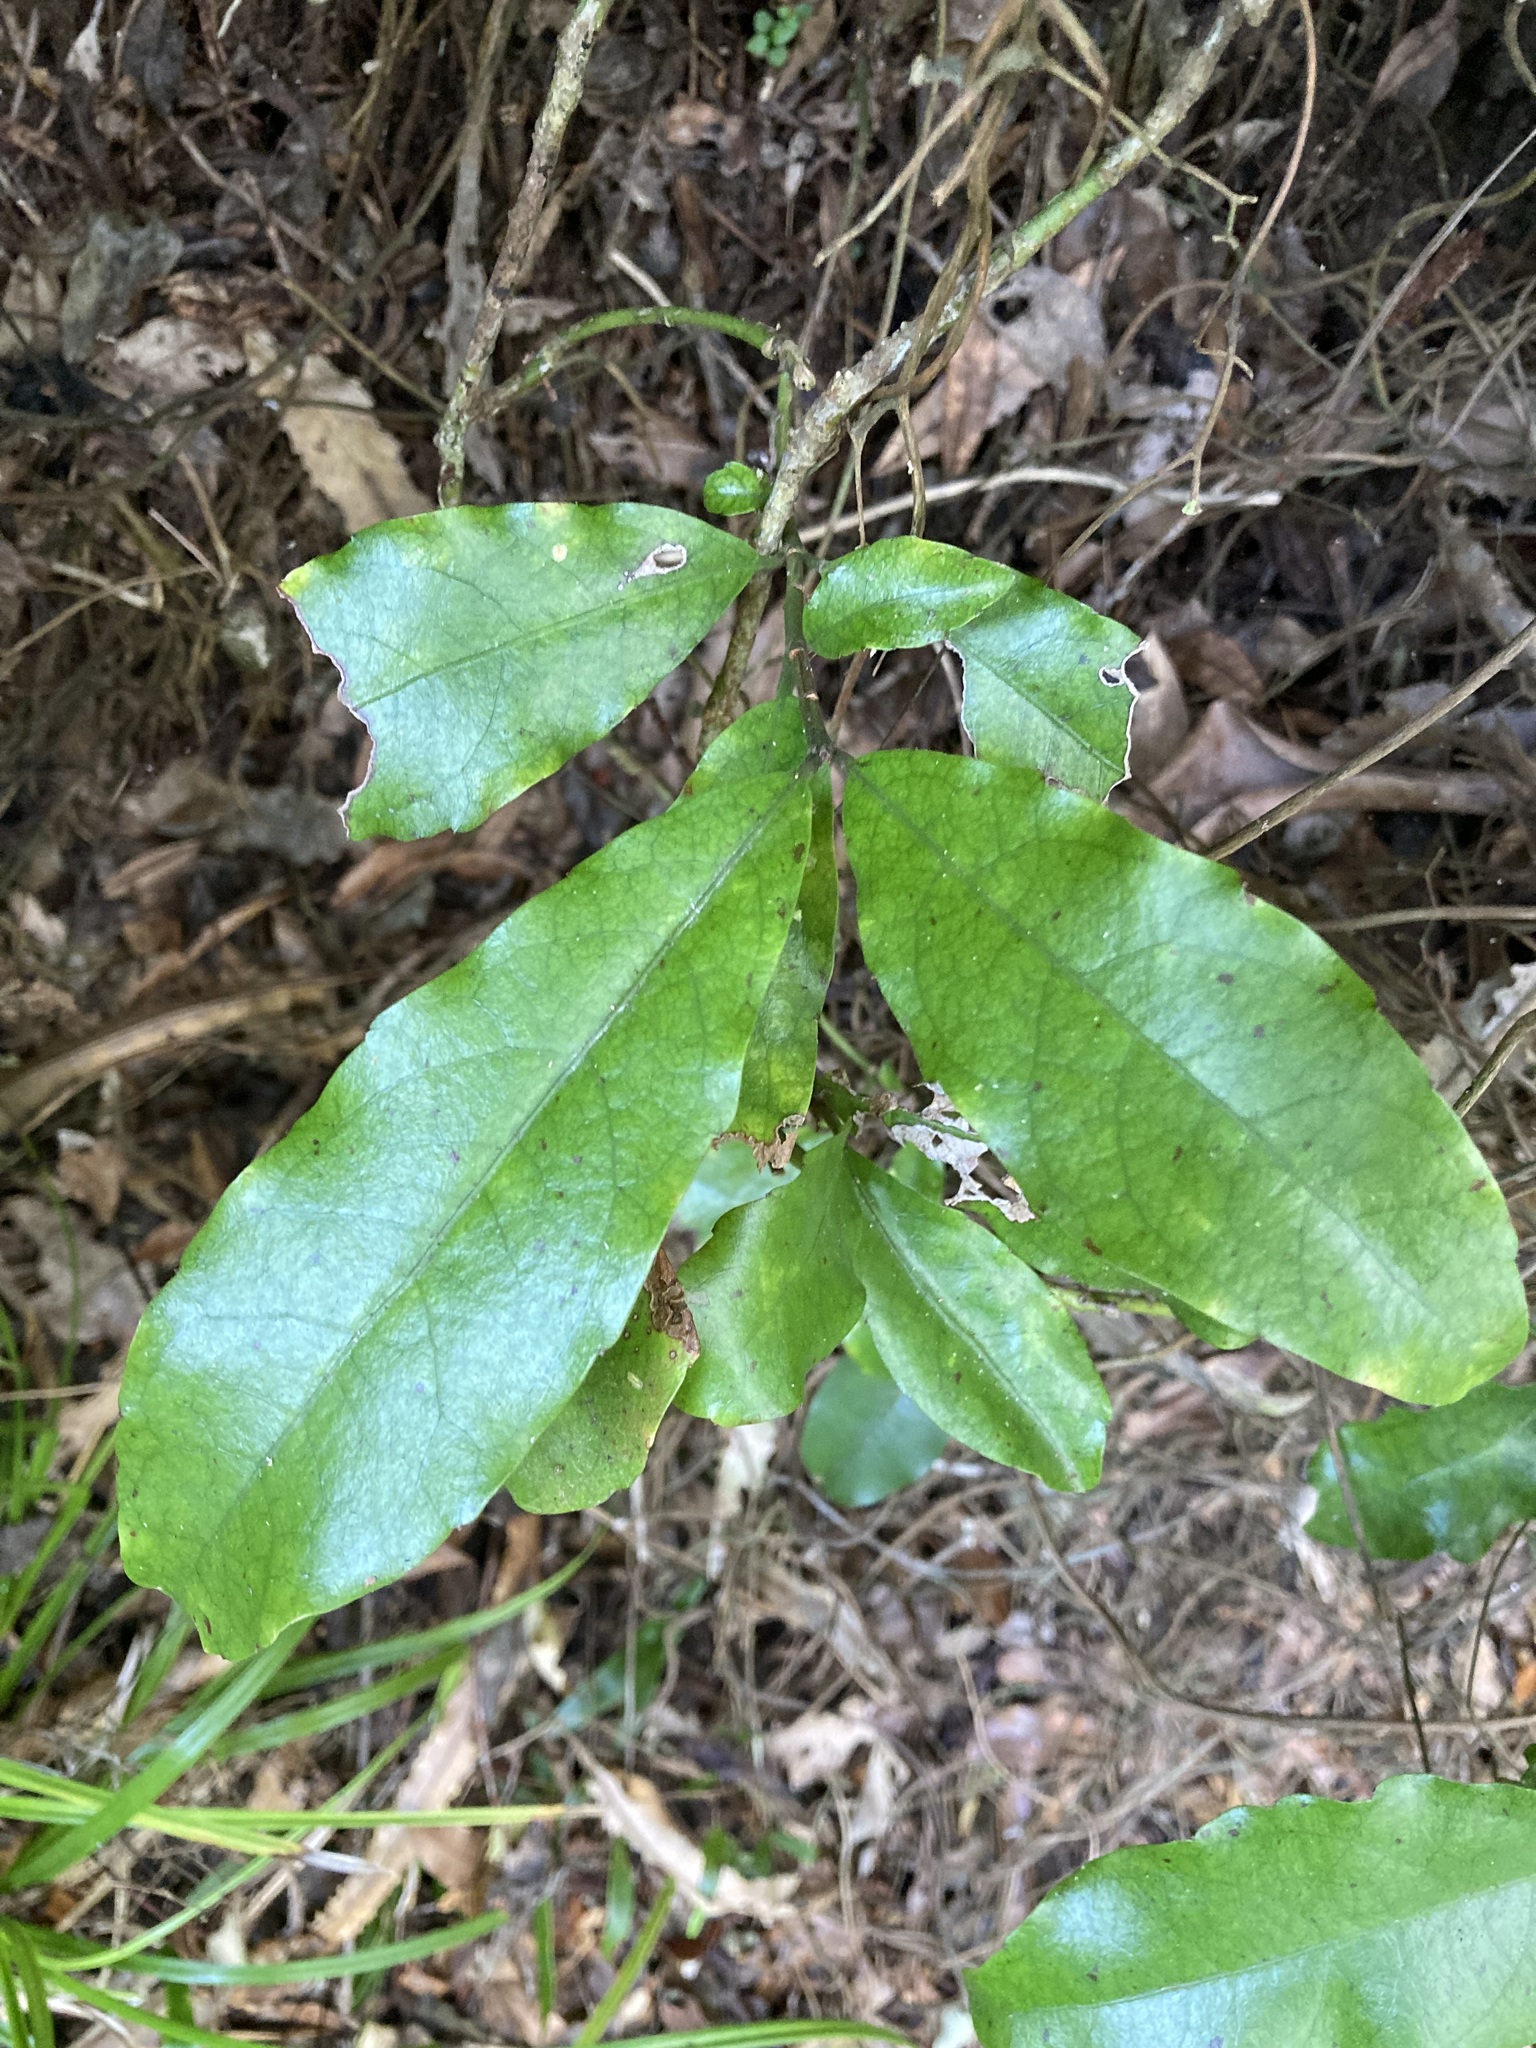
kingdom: Plantae
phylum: Tracheophyta
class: Magnoliopsida
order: Asterales
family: Alseuosmiaceae
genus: Alseuosmia
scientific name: Alseuosmia macrophylla
